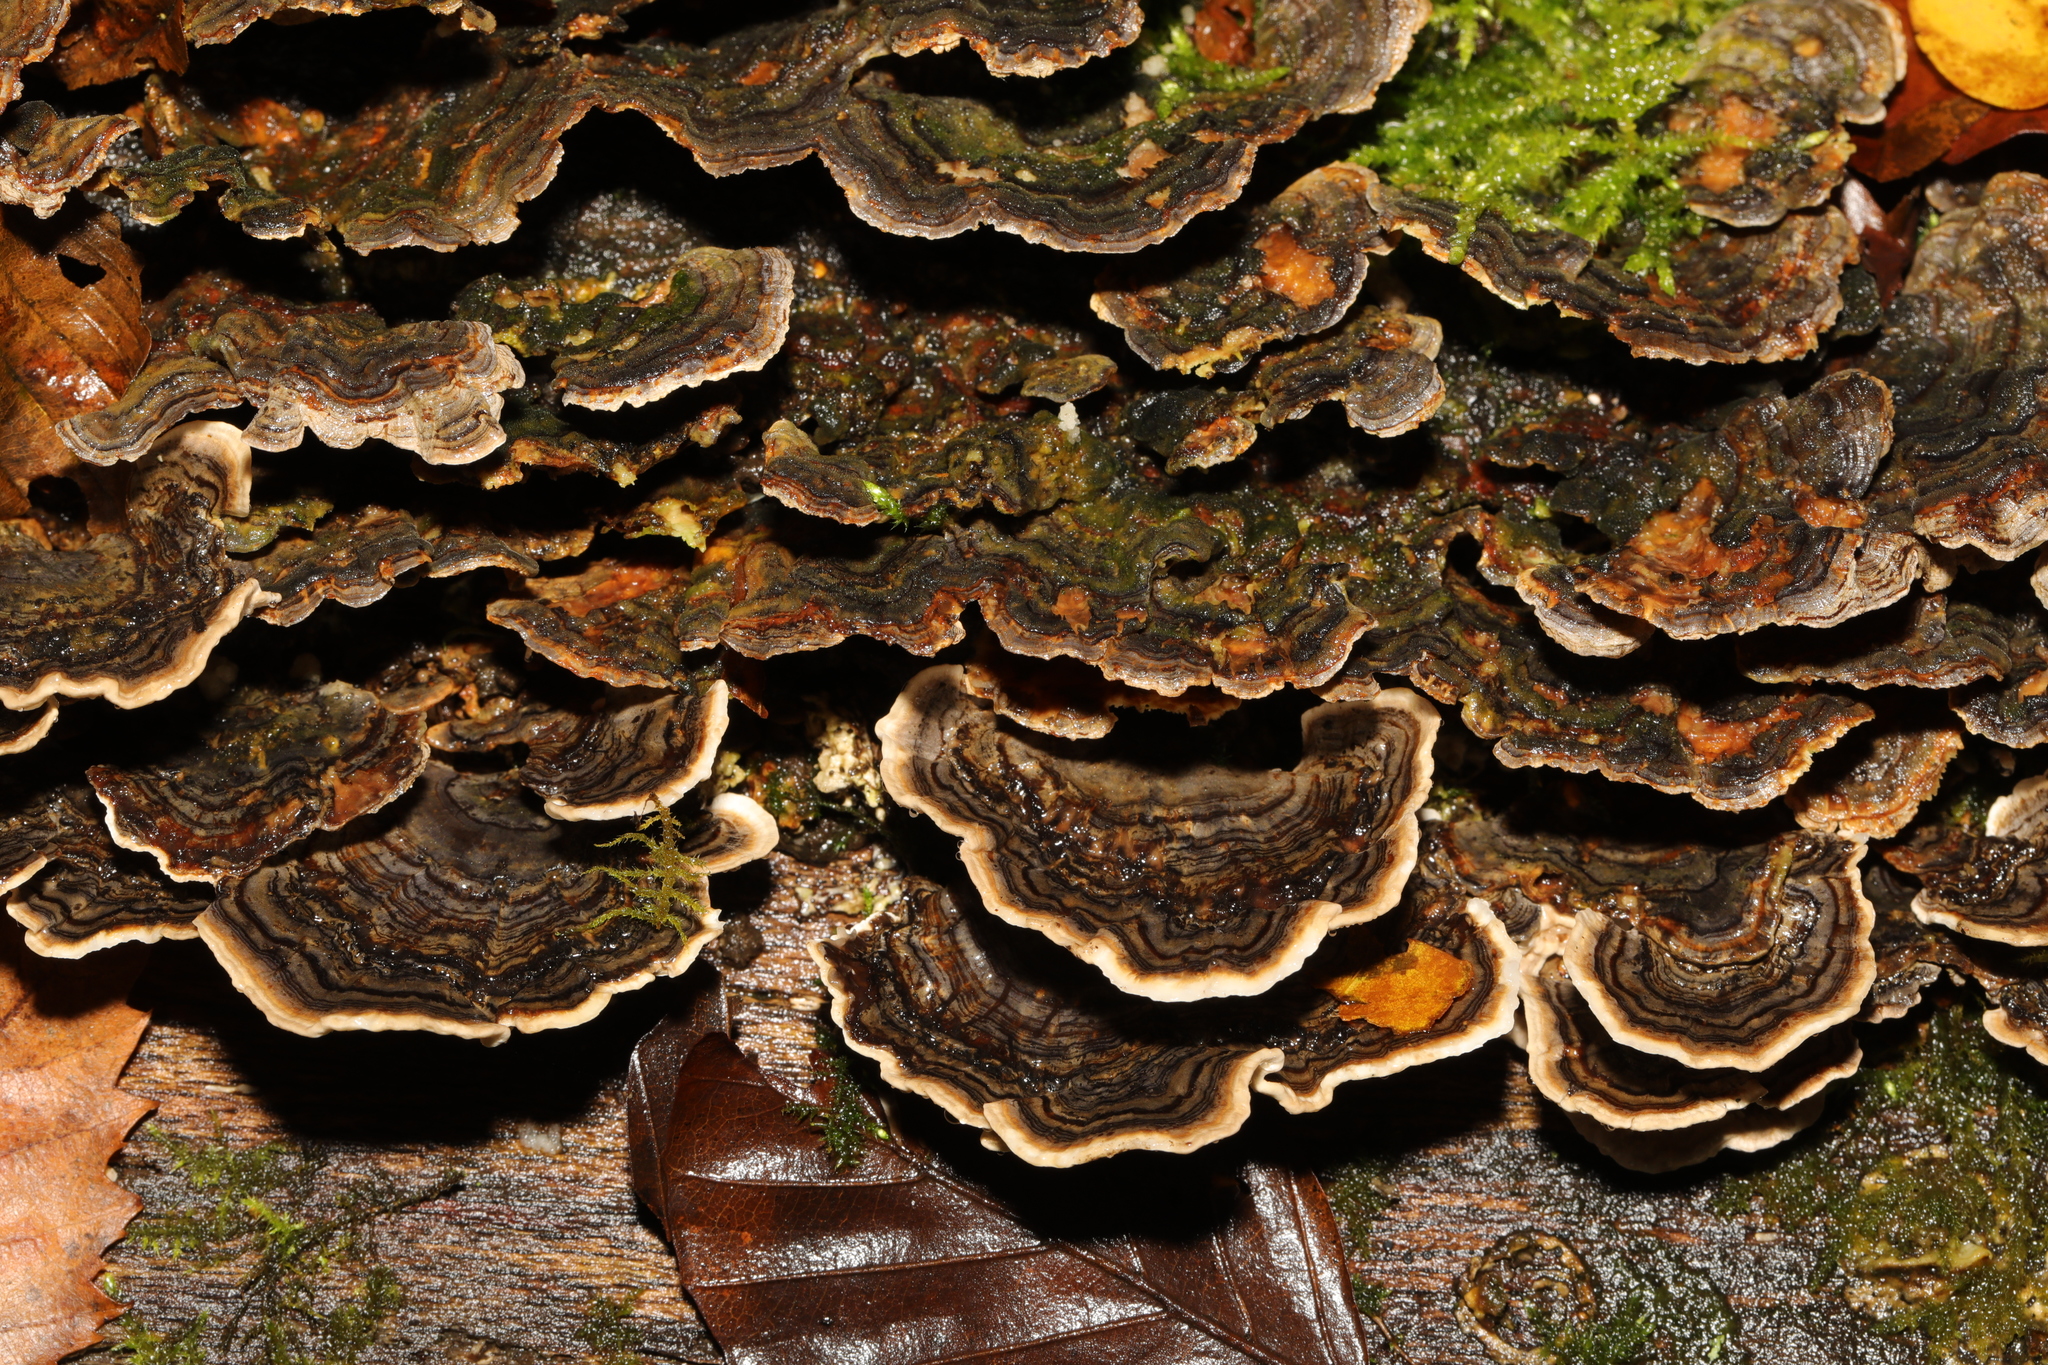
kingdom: Fungi
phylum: Basidiomycota
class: Agaricomycetes
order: Polyporales
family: Polyporaceae
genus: Trametes
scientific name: Trametes versicolor
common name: Turkeytail
